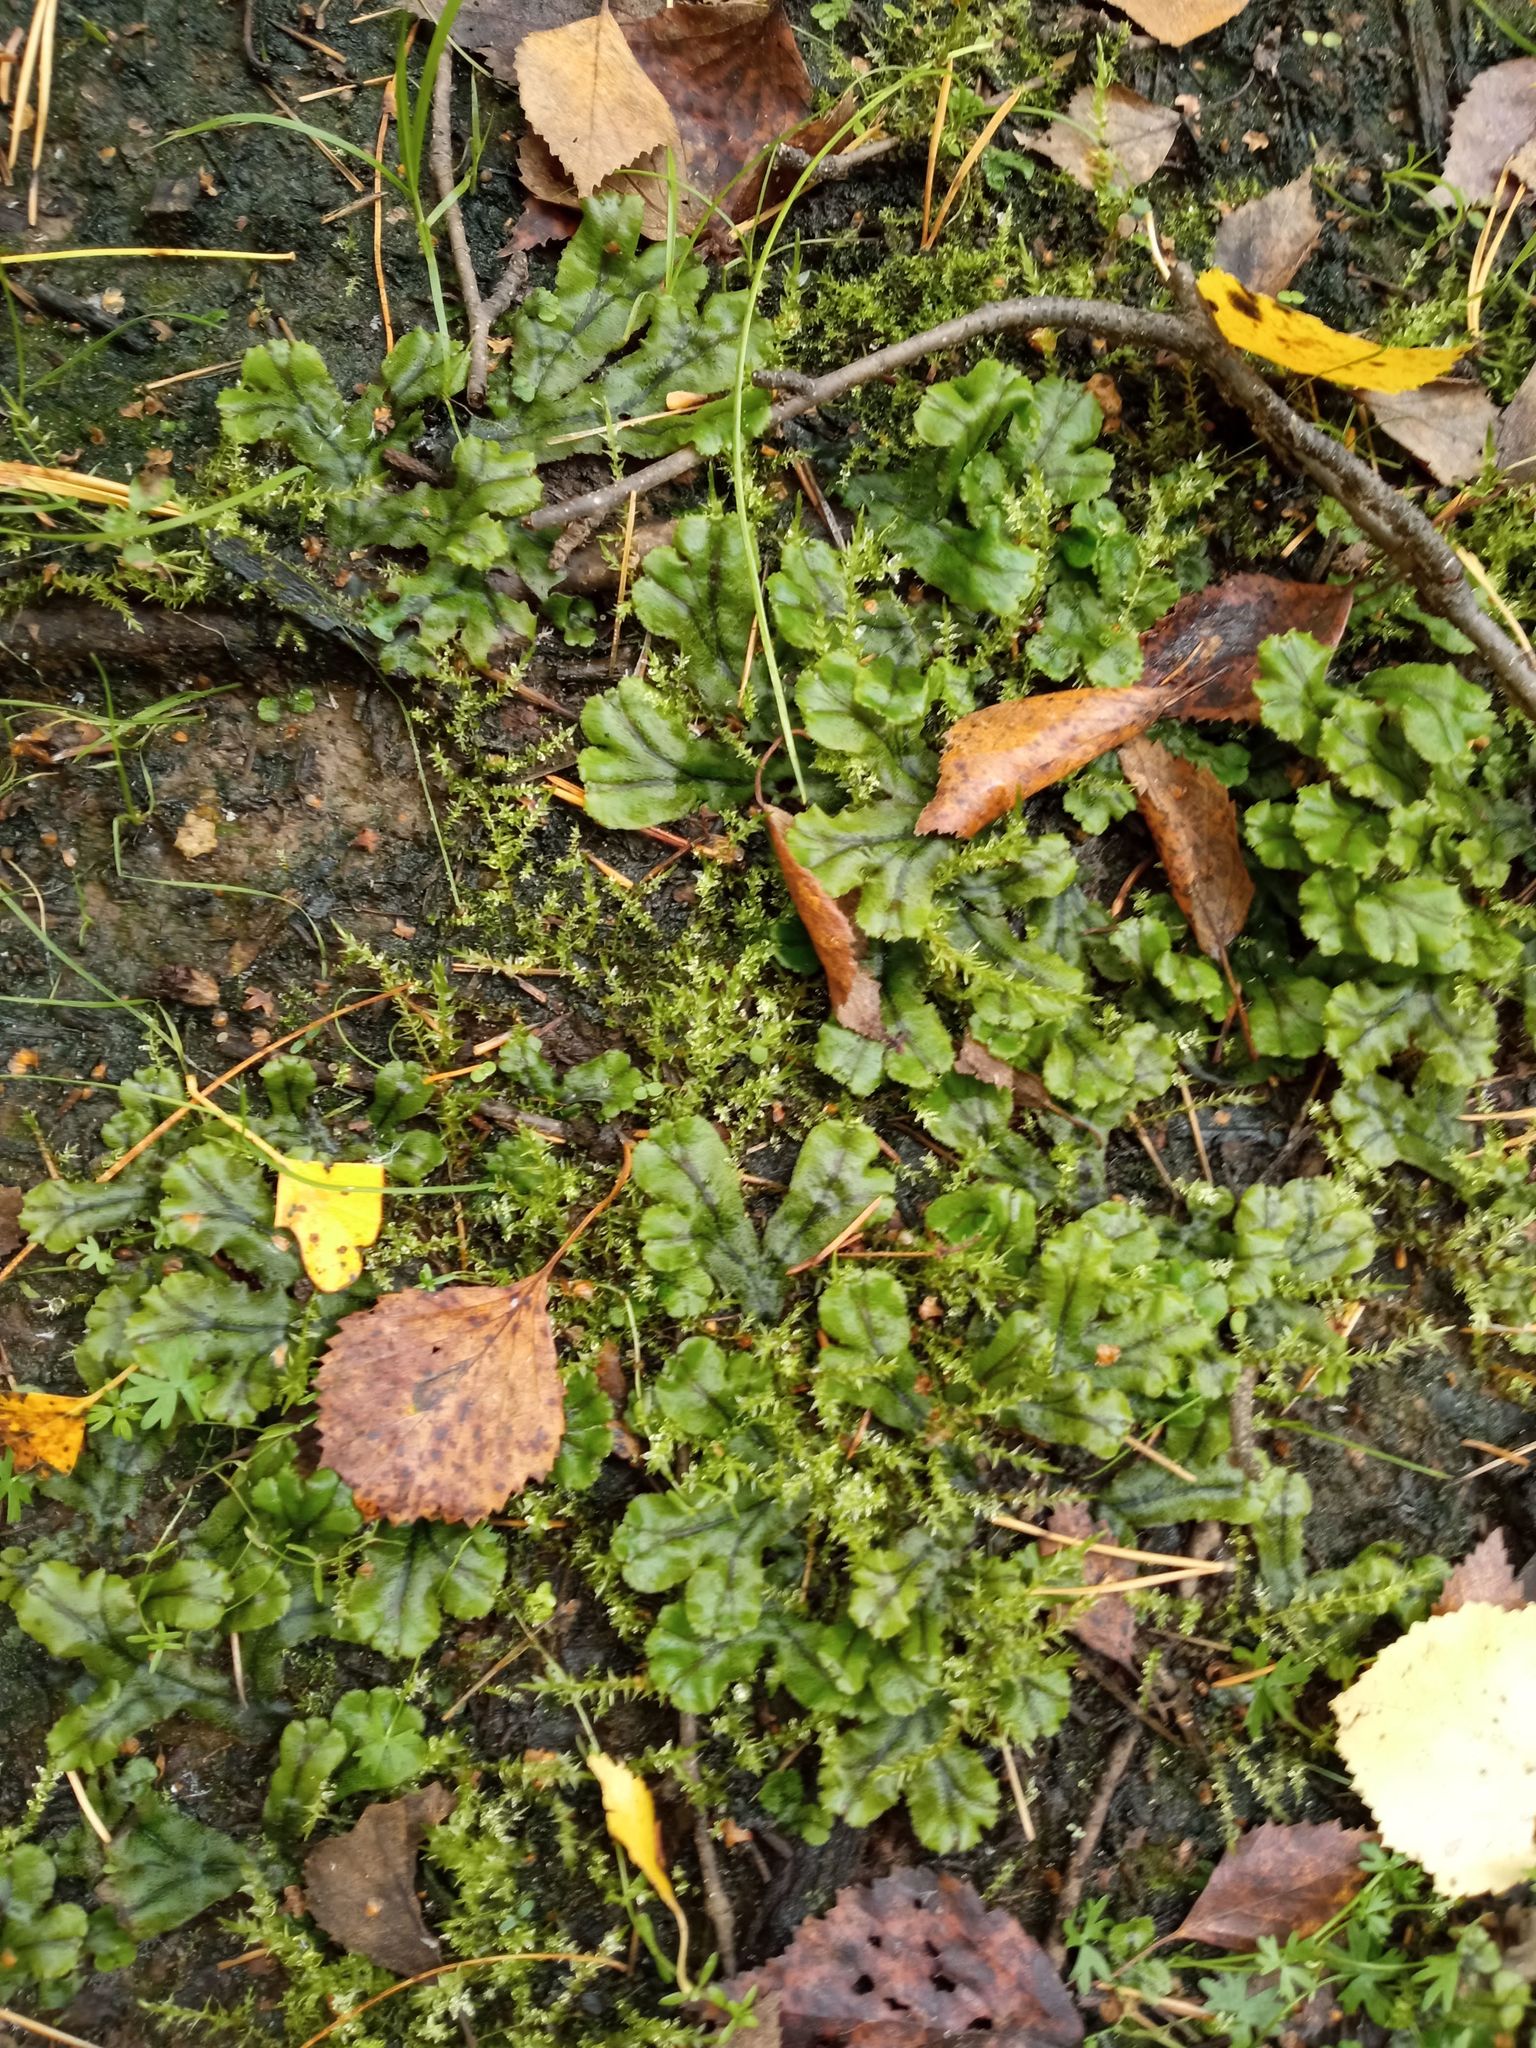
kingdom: Plantae
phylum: Marchantiophyta
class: Marchantiopsida
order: Marchantiales
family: Marchantiaceae
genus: Marchantia
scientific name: Marchantia polymorpha
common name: Common liverwort
